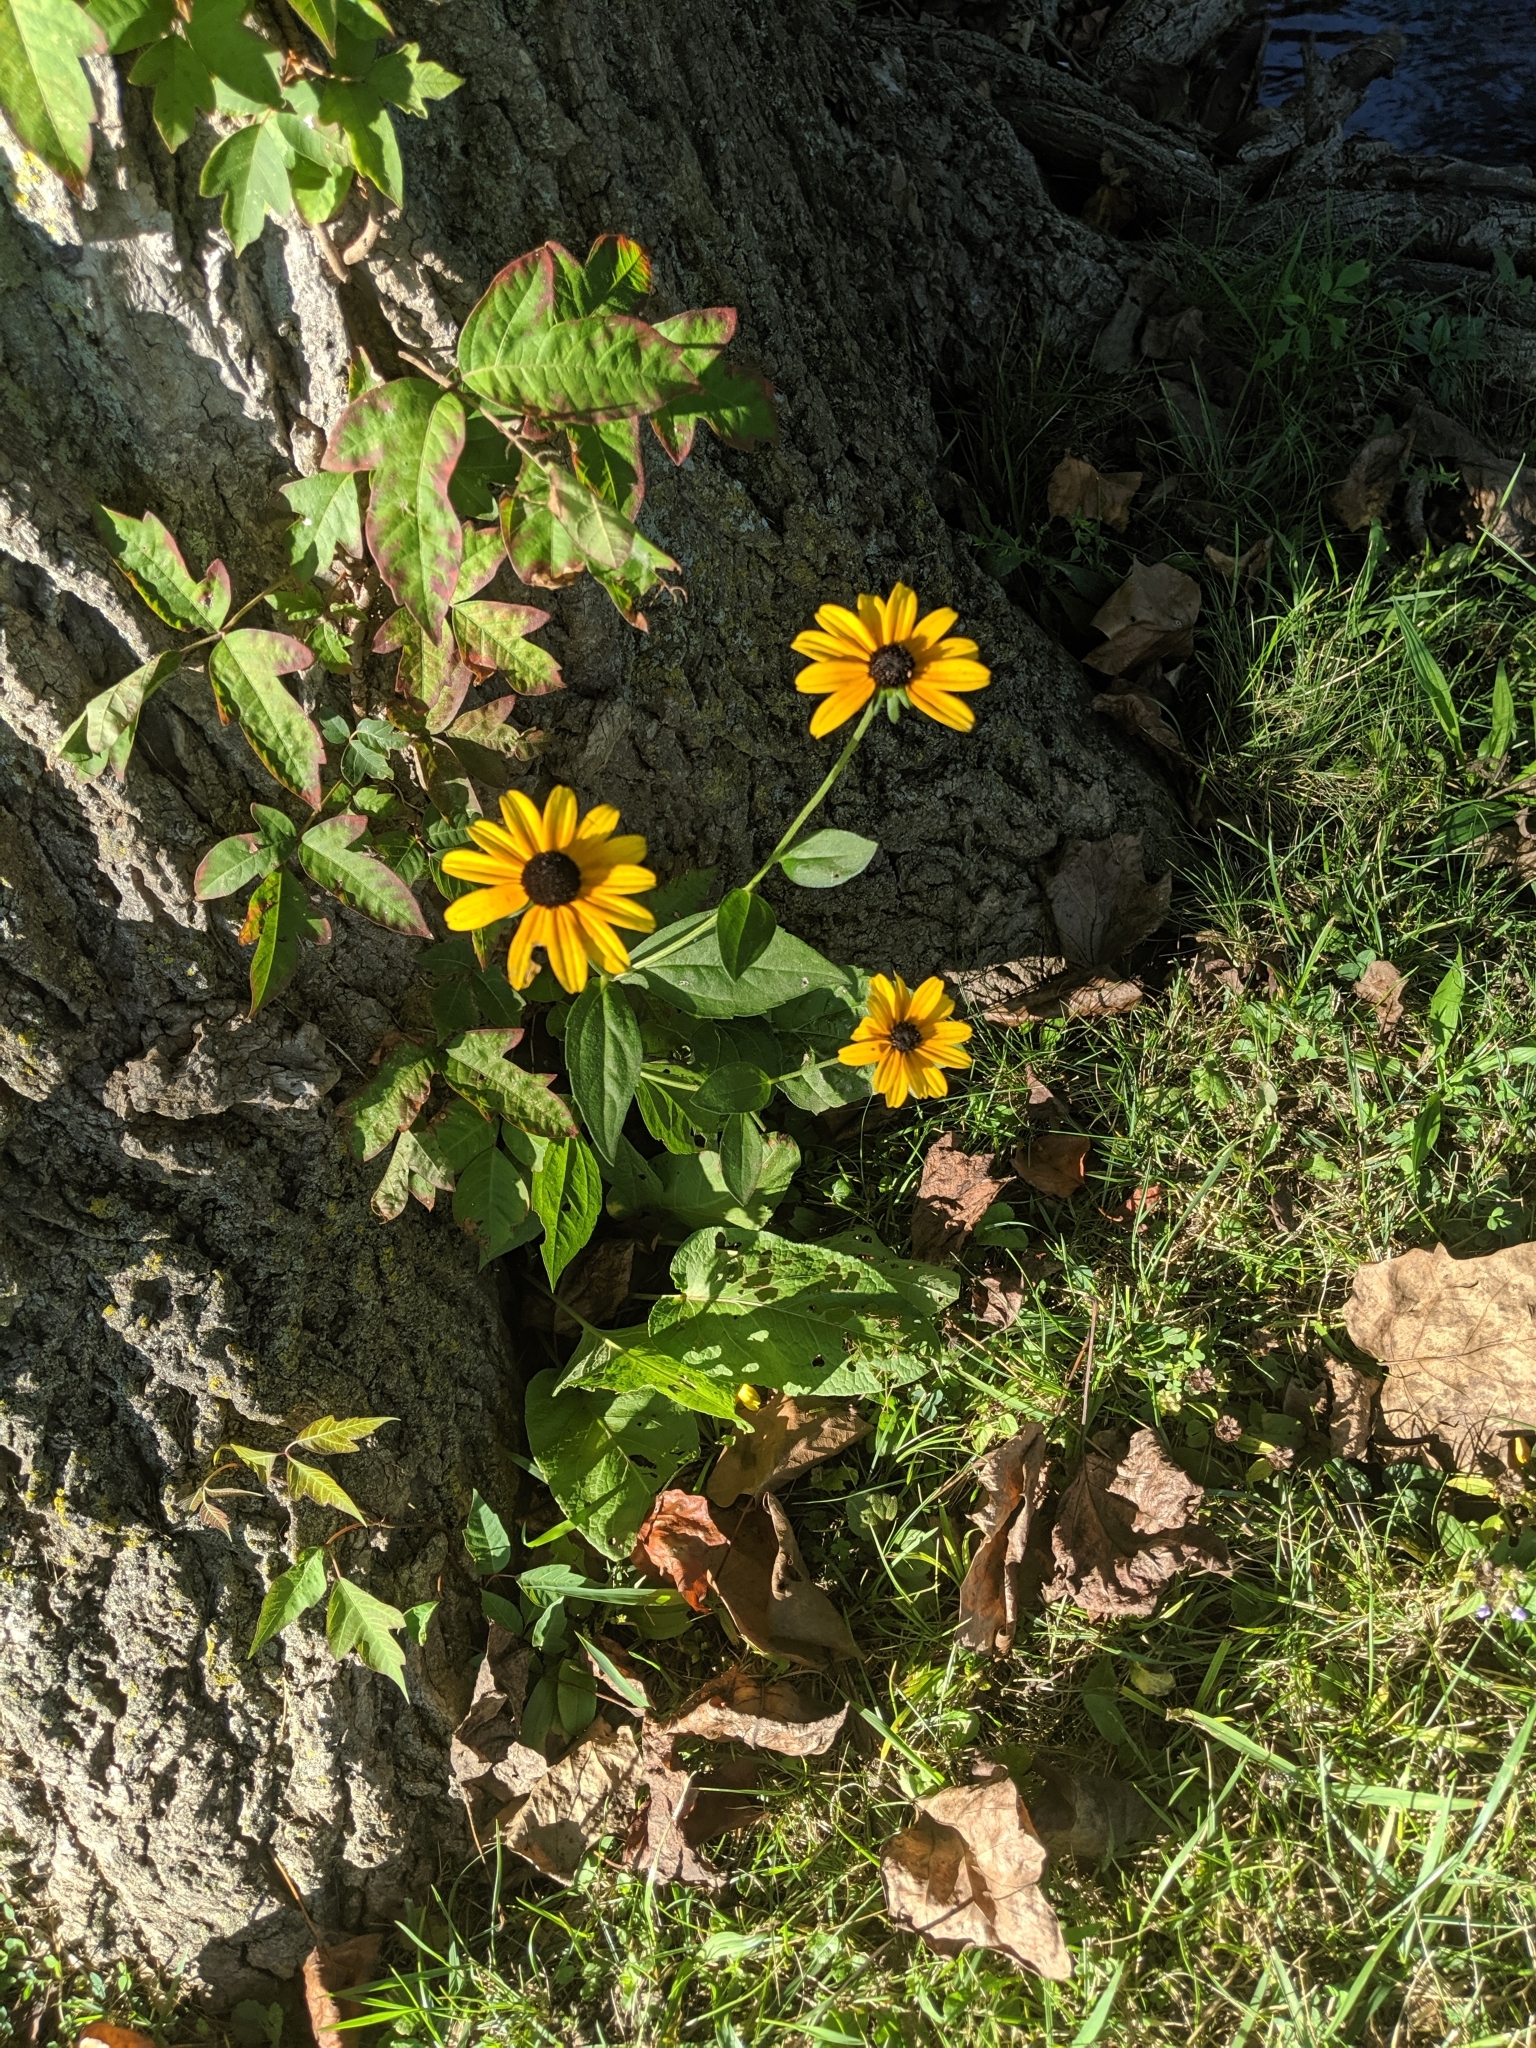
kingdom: Plantae
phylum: Tracheophyta
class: Magnoliopsida
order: Asterales
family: Asteraceae
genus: Rudbeckia
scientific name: Rudbeckia triloba
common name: Thin-leaved coneflower
